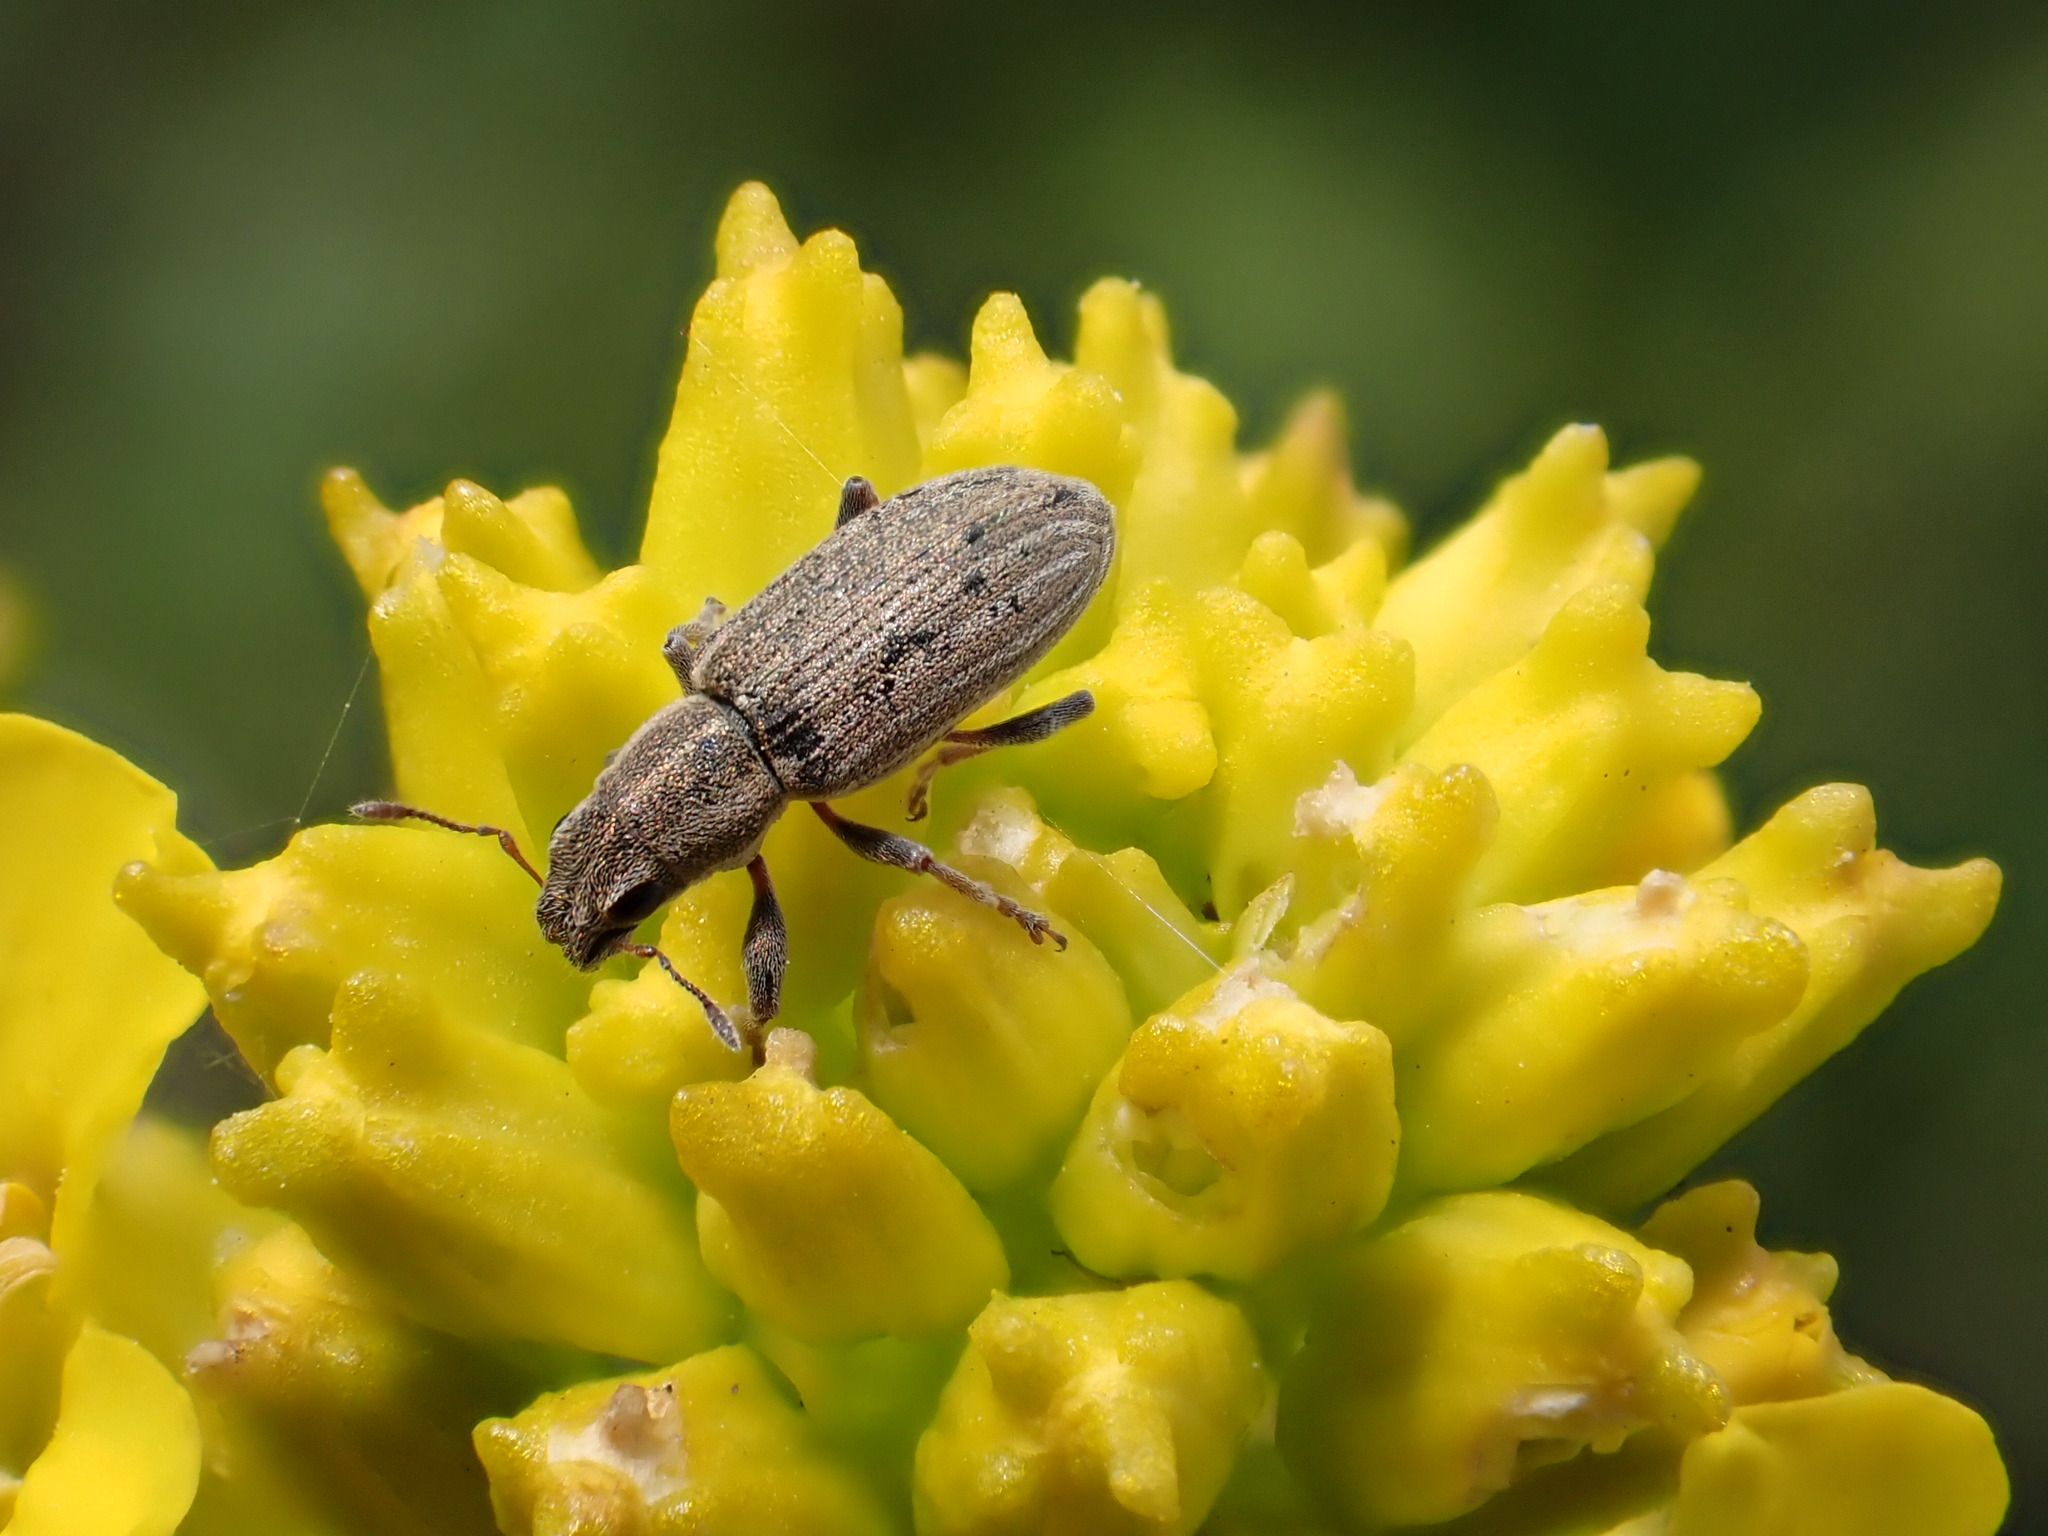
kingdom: Animalia
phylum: Arthropoda
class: Insecta
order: Coleoptera
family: Curculionidae
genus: Sitona
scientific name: Sitona lineatus
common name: Weevil
